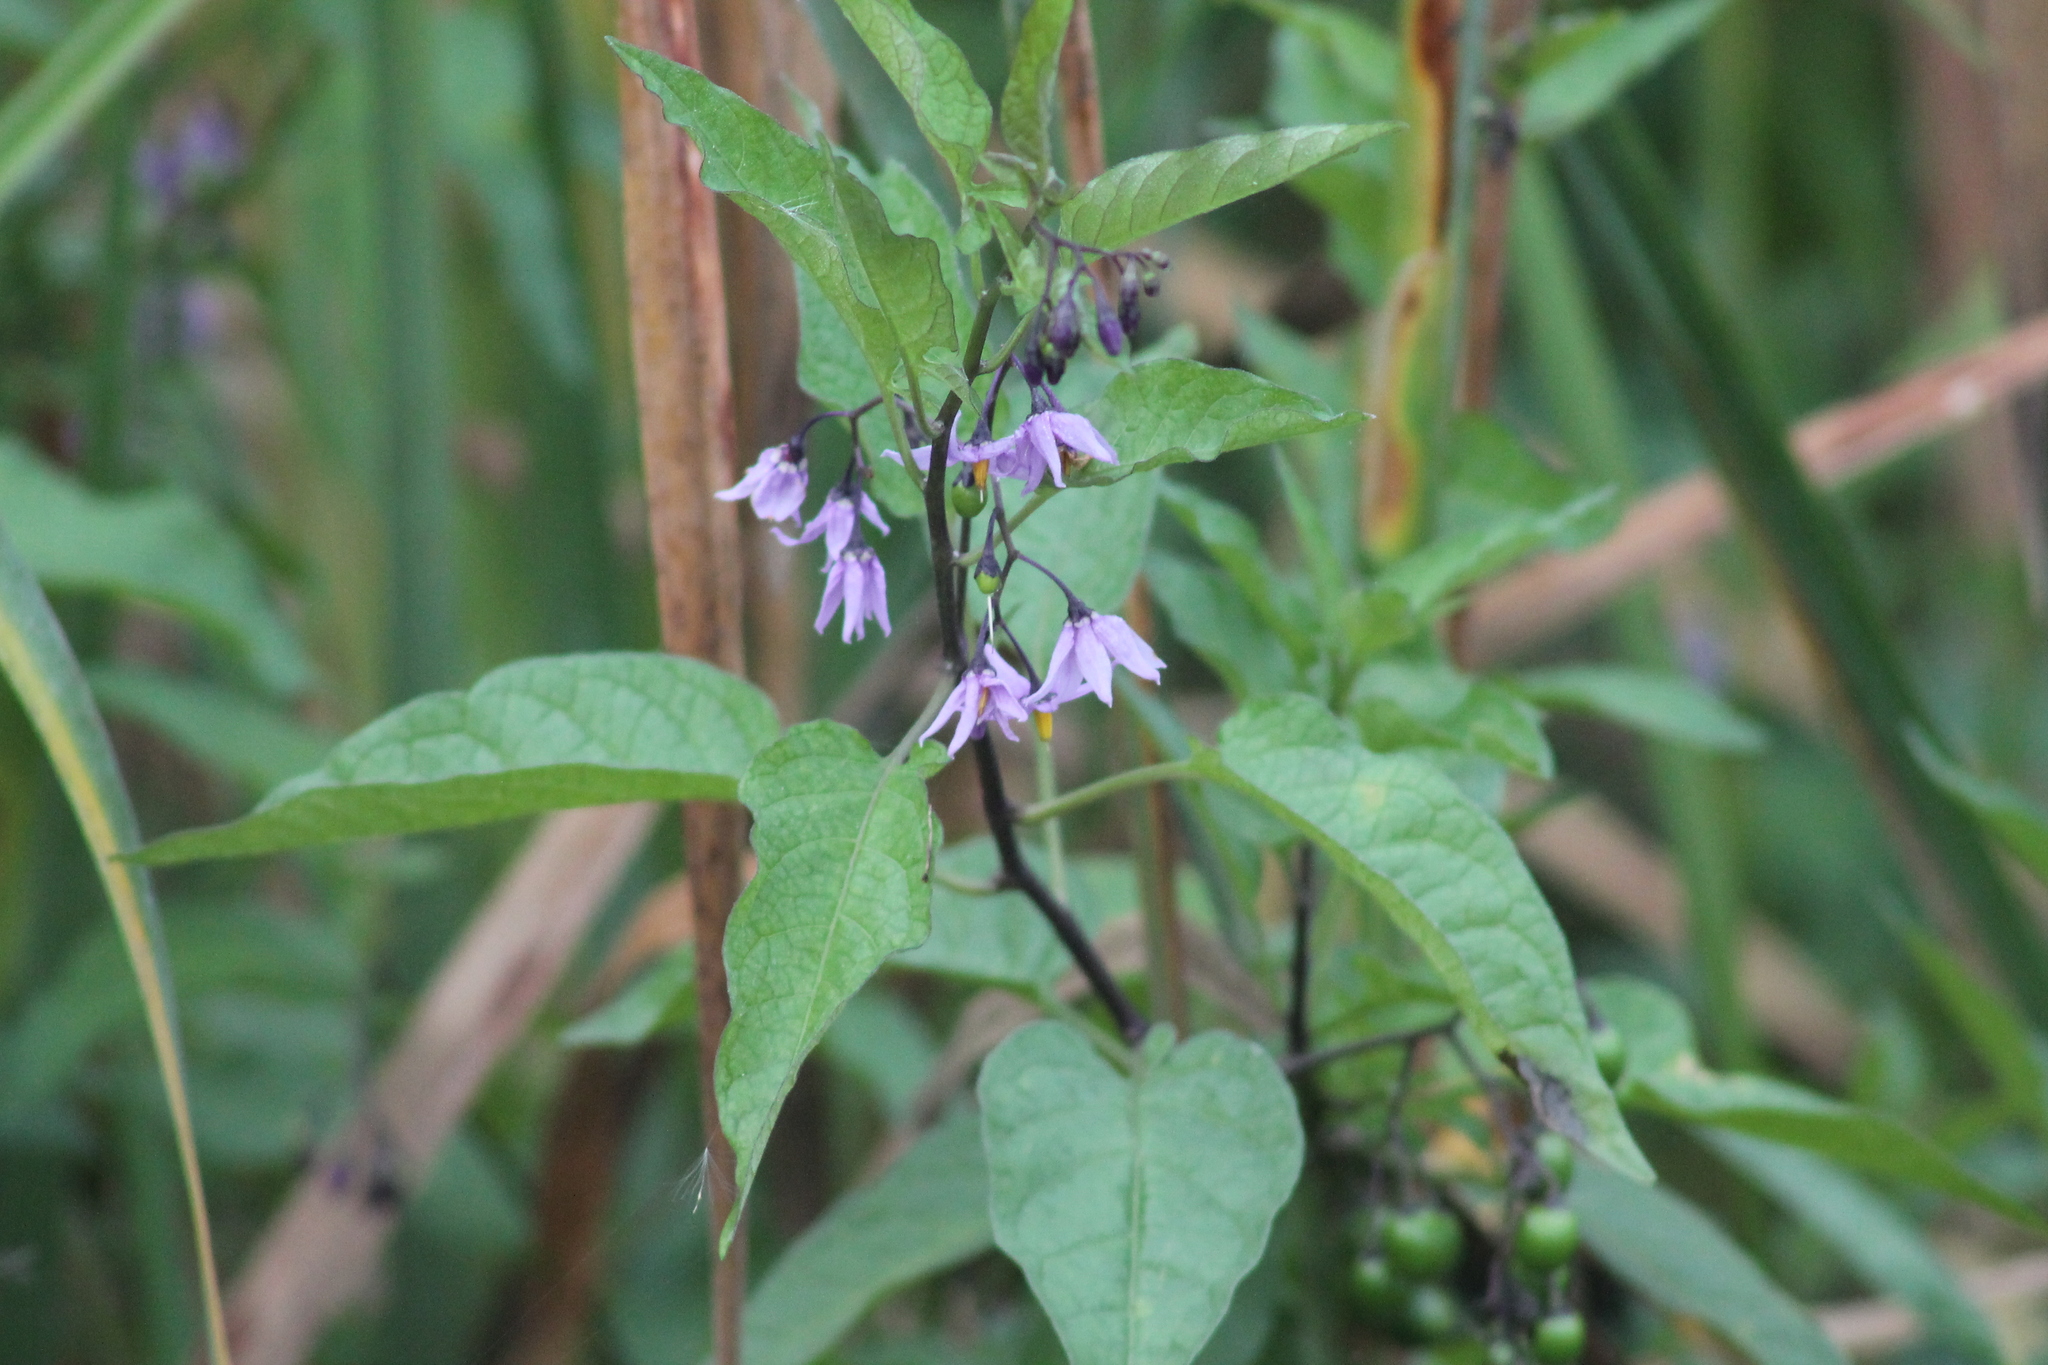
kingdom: Plantae
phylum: Tracheophyta
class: Magnoliopsida
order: Solanales
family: Solanaceae
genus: Solanum
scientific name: Solanum dulcamara
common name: Climbing nightshade
